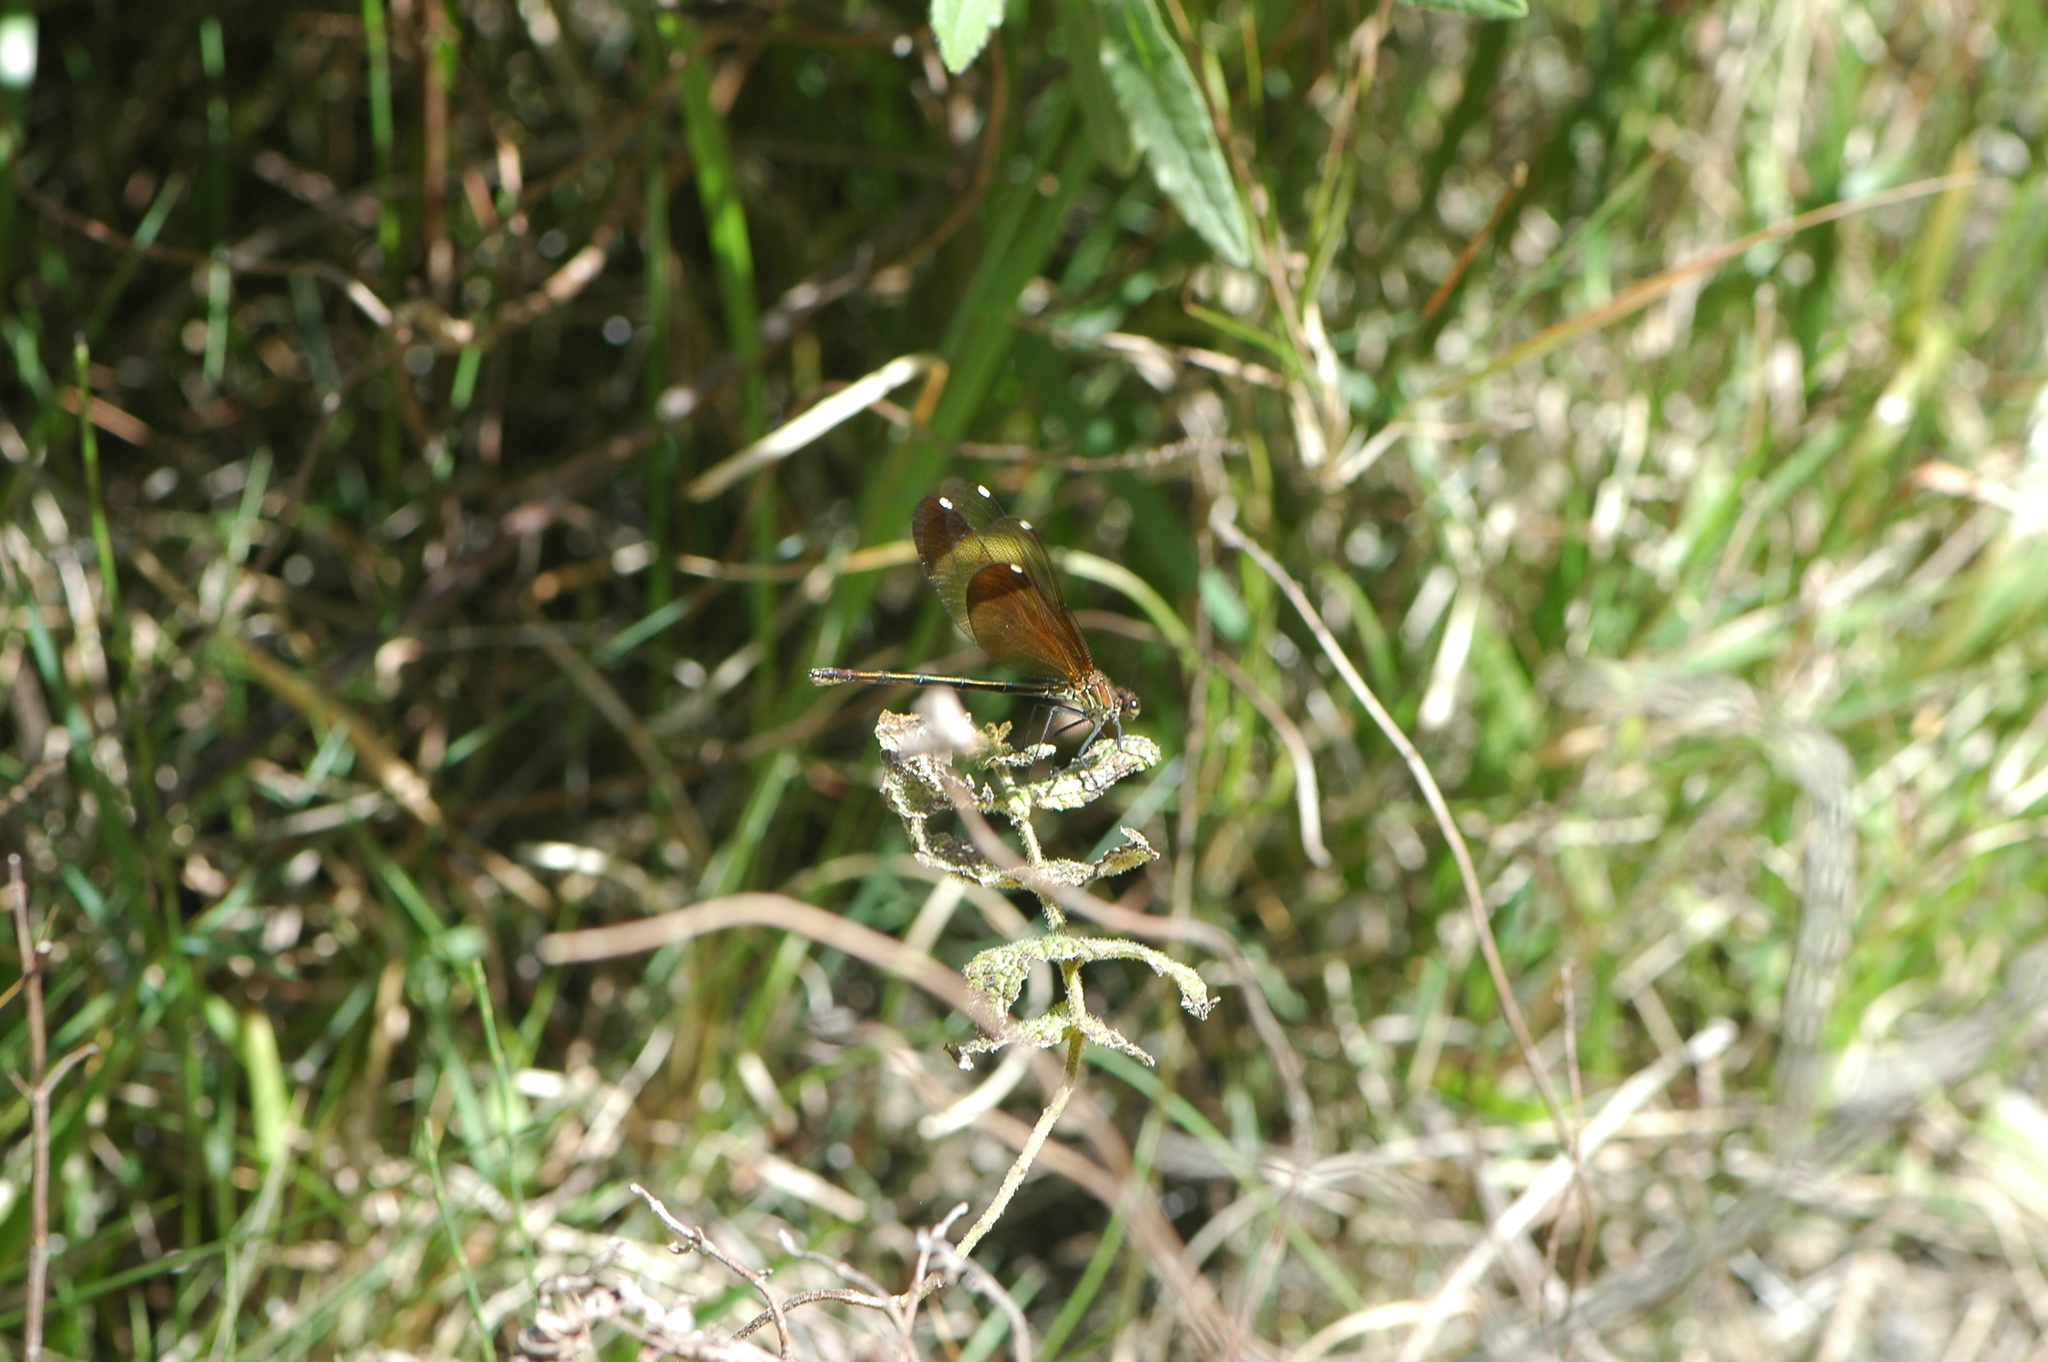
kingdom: Animalia
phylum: Arthropoda
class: Insecta
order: Odonata
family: Calopterygidae
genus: Calopteryx
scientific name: Calopteryx haemorrhoidalis
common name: Copper demoiselle
